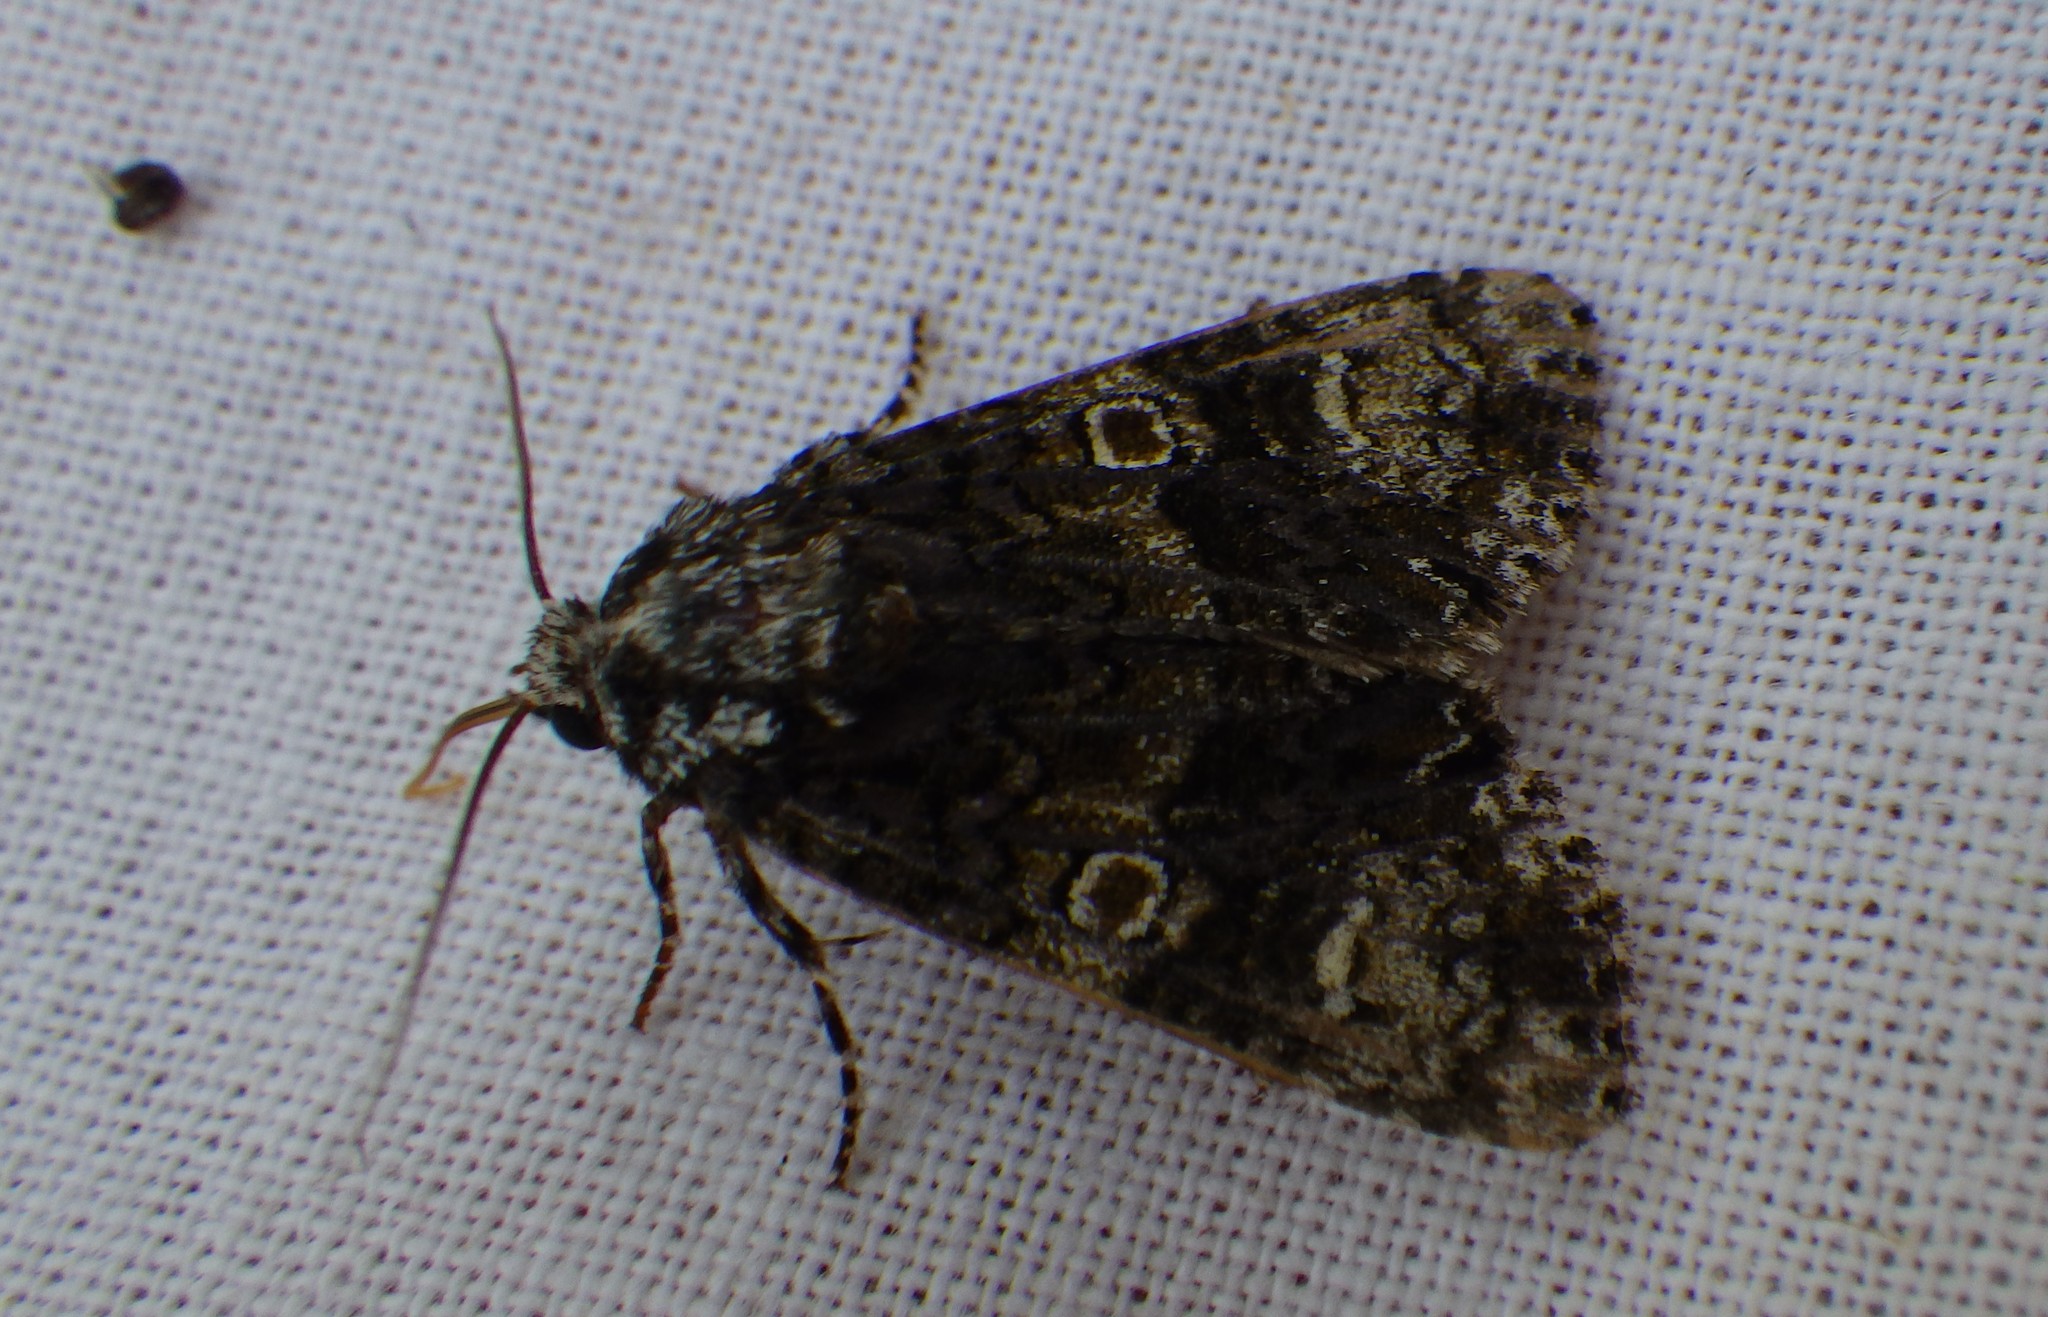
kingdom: Animalia
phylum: Arthropoda
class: Insecta
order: Lepidoptera
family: Noctuidae
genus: Craniophora
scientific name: Craniophora ligustri
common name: Coronet
